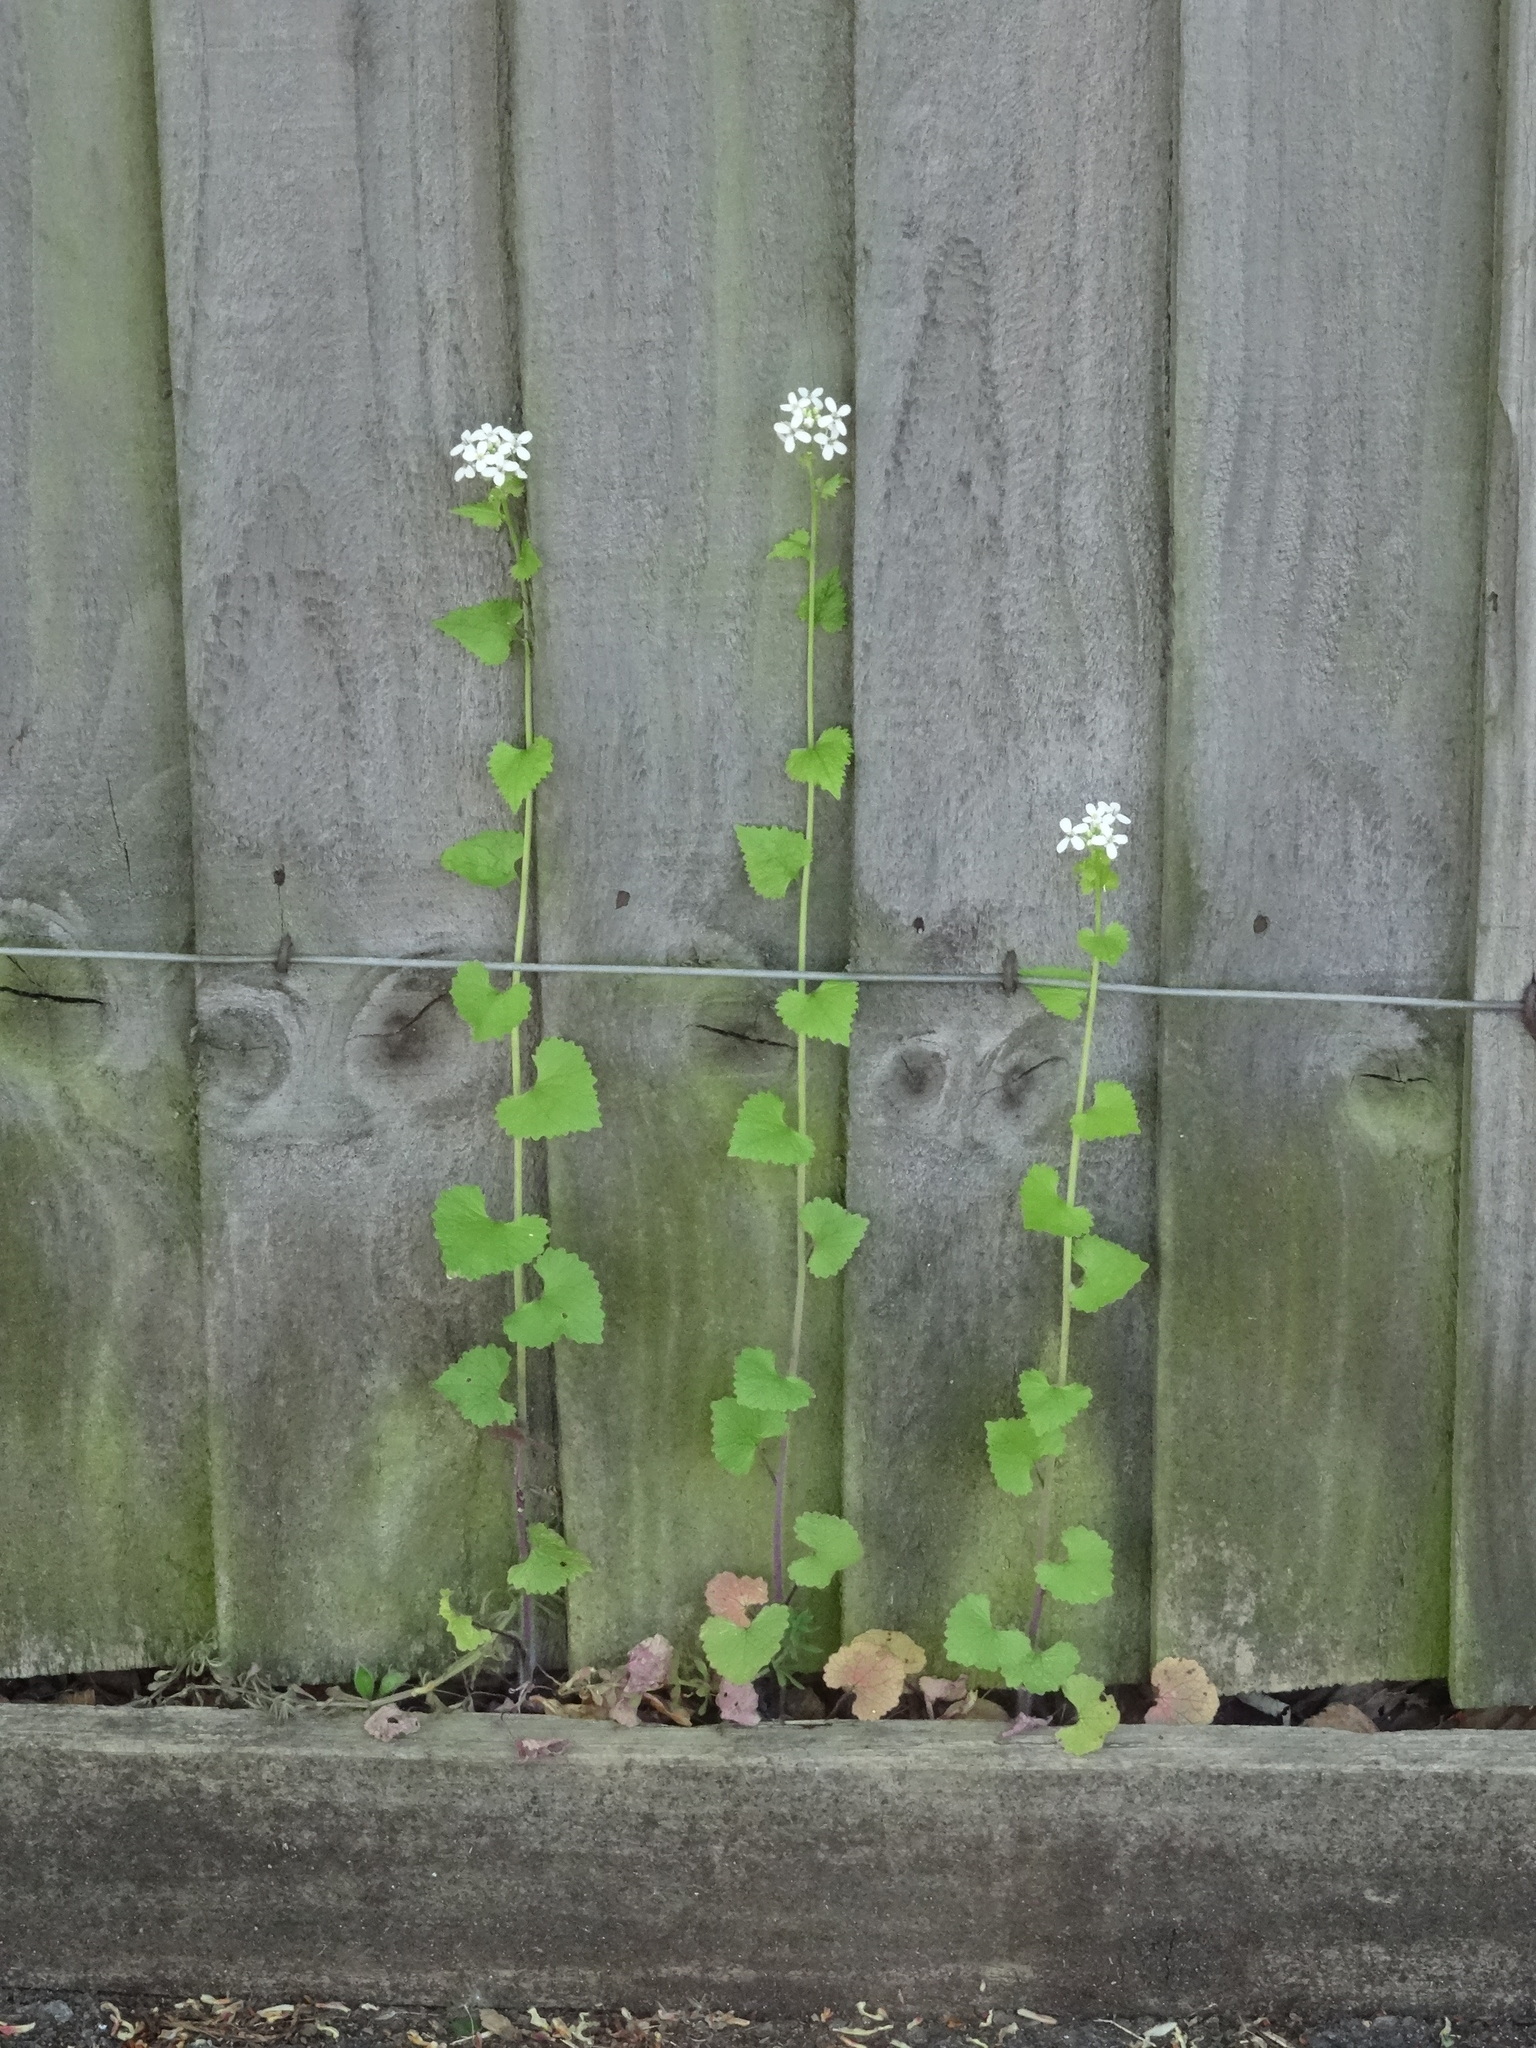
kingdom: Plantae
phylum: Tracheophyta
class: Magnoliopsida
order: Brassicales
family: Brassicaceae
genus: Alliaria
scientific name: Alliaria petiolata
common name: Garlic mustard
